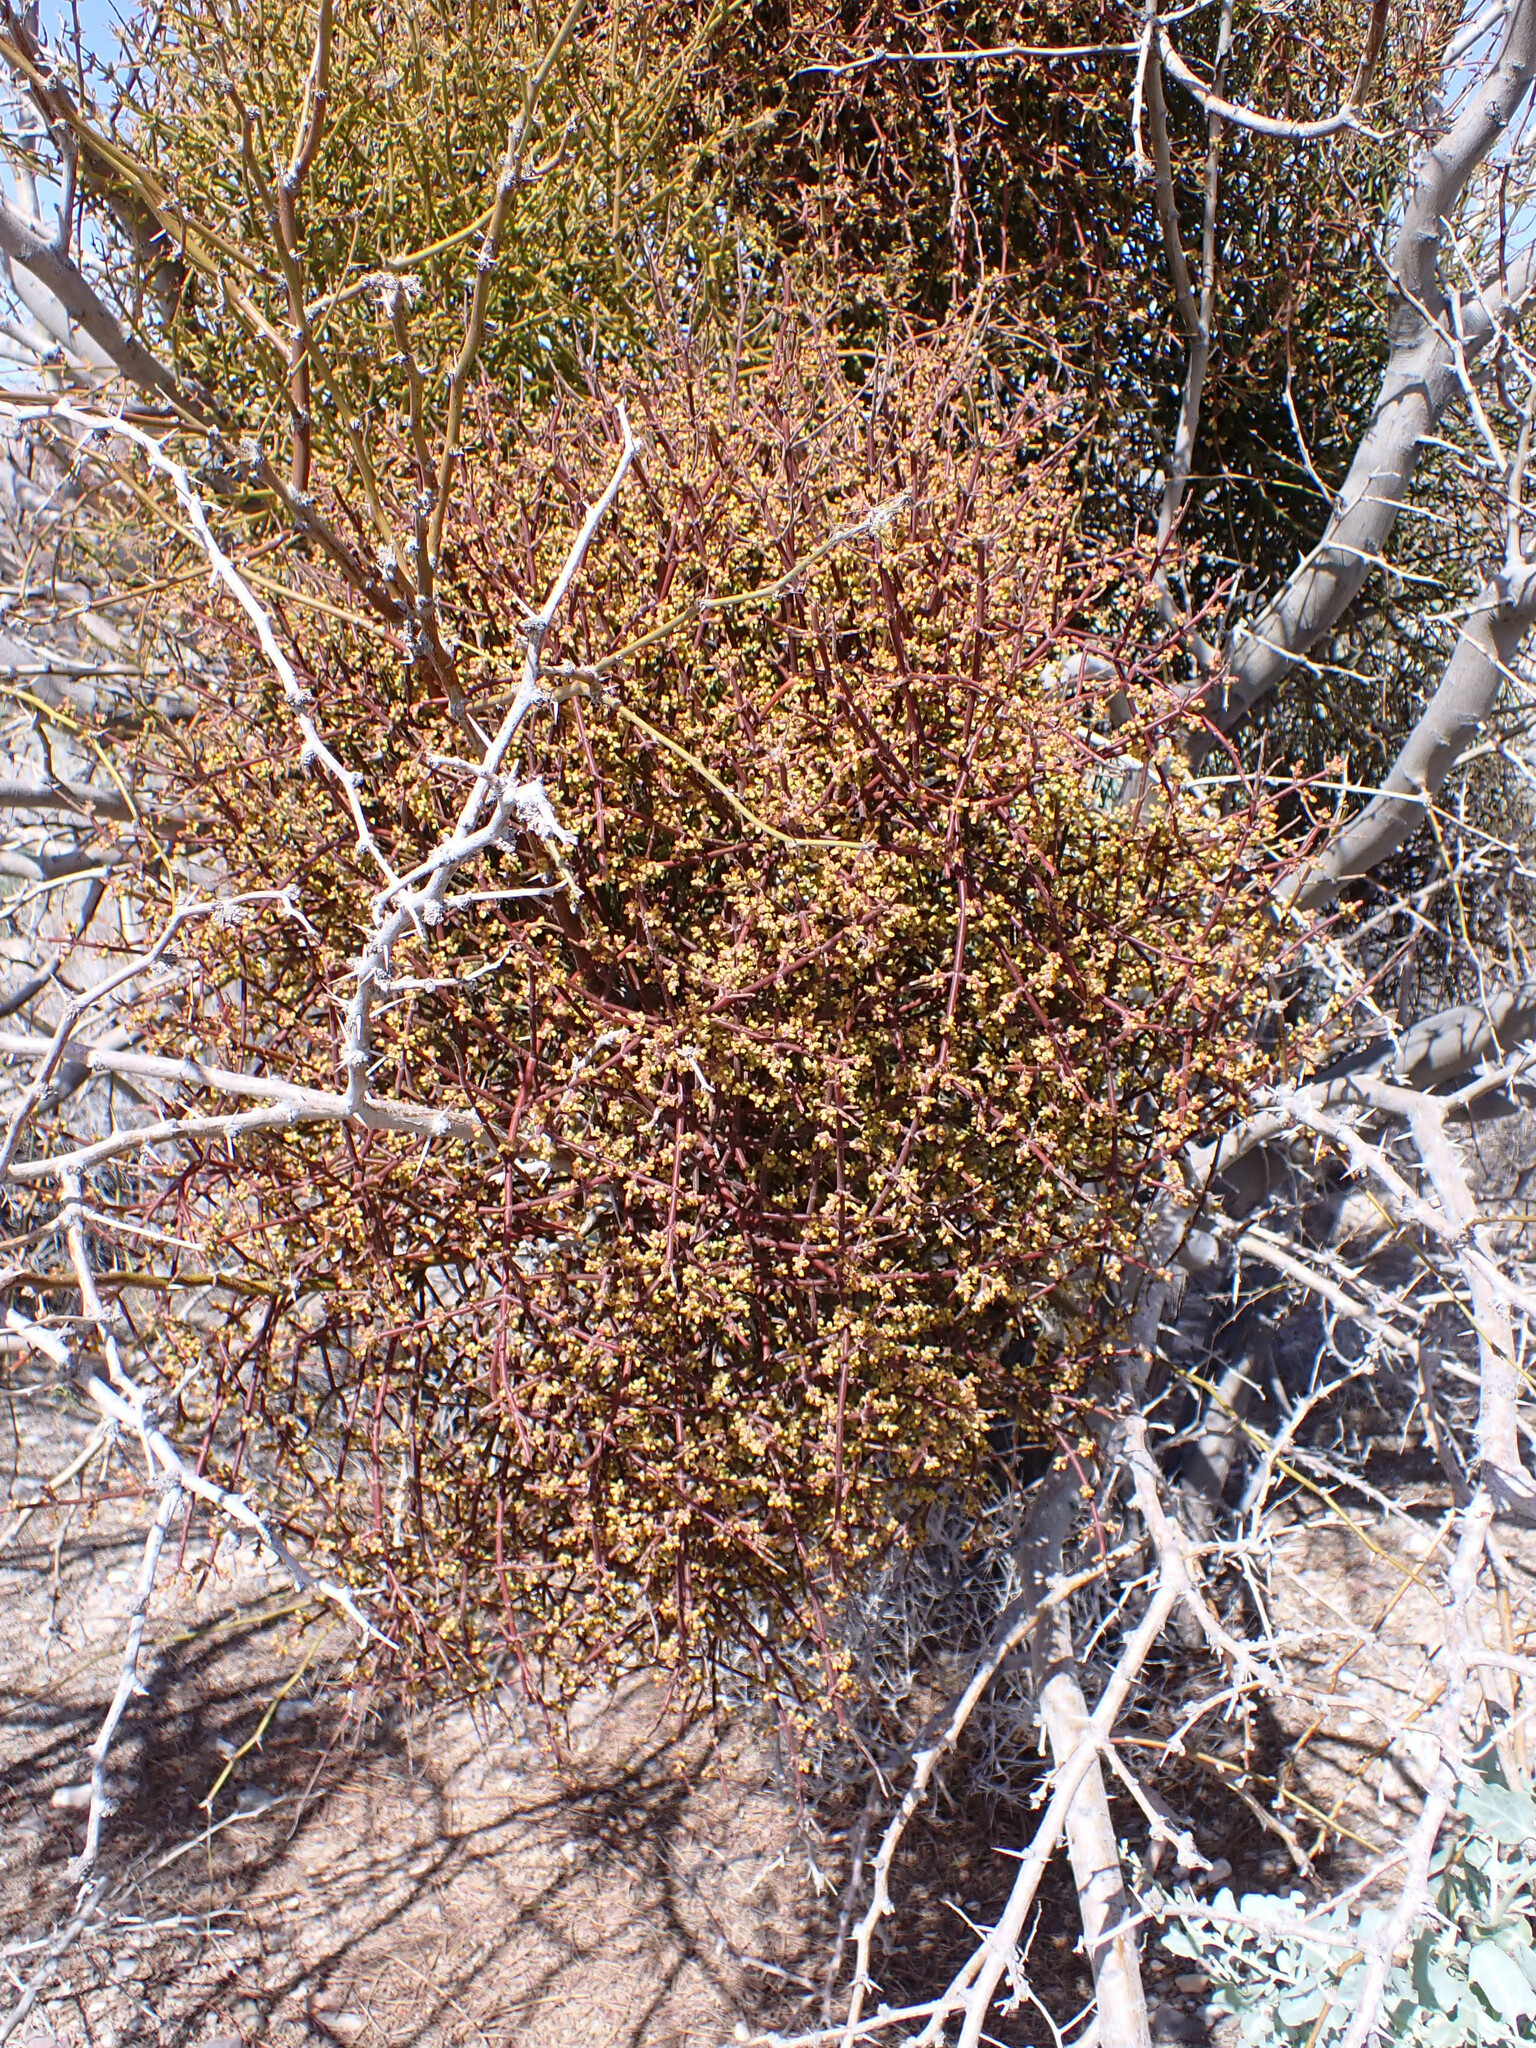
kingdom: Plantae
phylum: Tracheophyta
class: Magnoliopsida
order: Santalales
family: Viscaceae
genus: Phoradendron
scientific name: Phoradendron californicum
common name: Acacia mistletoe
